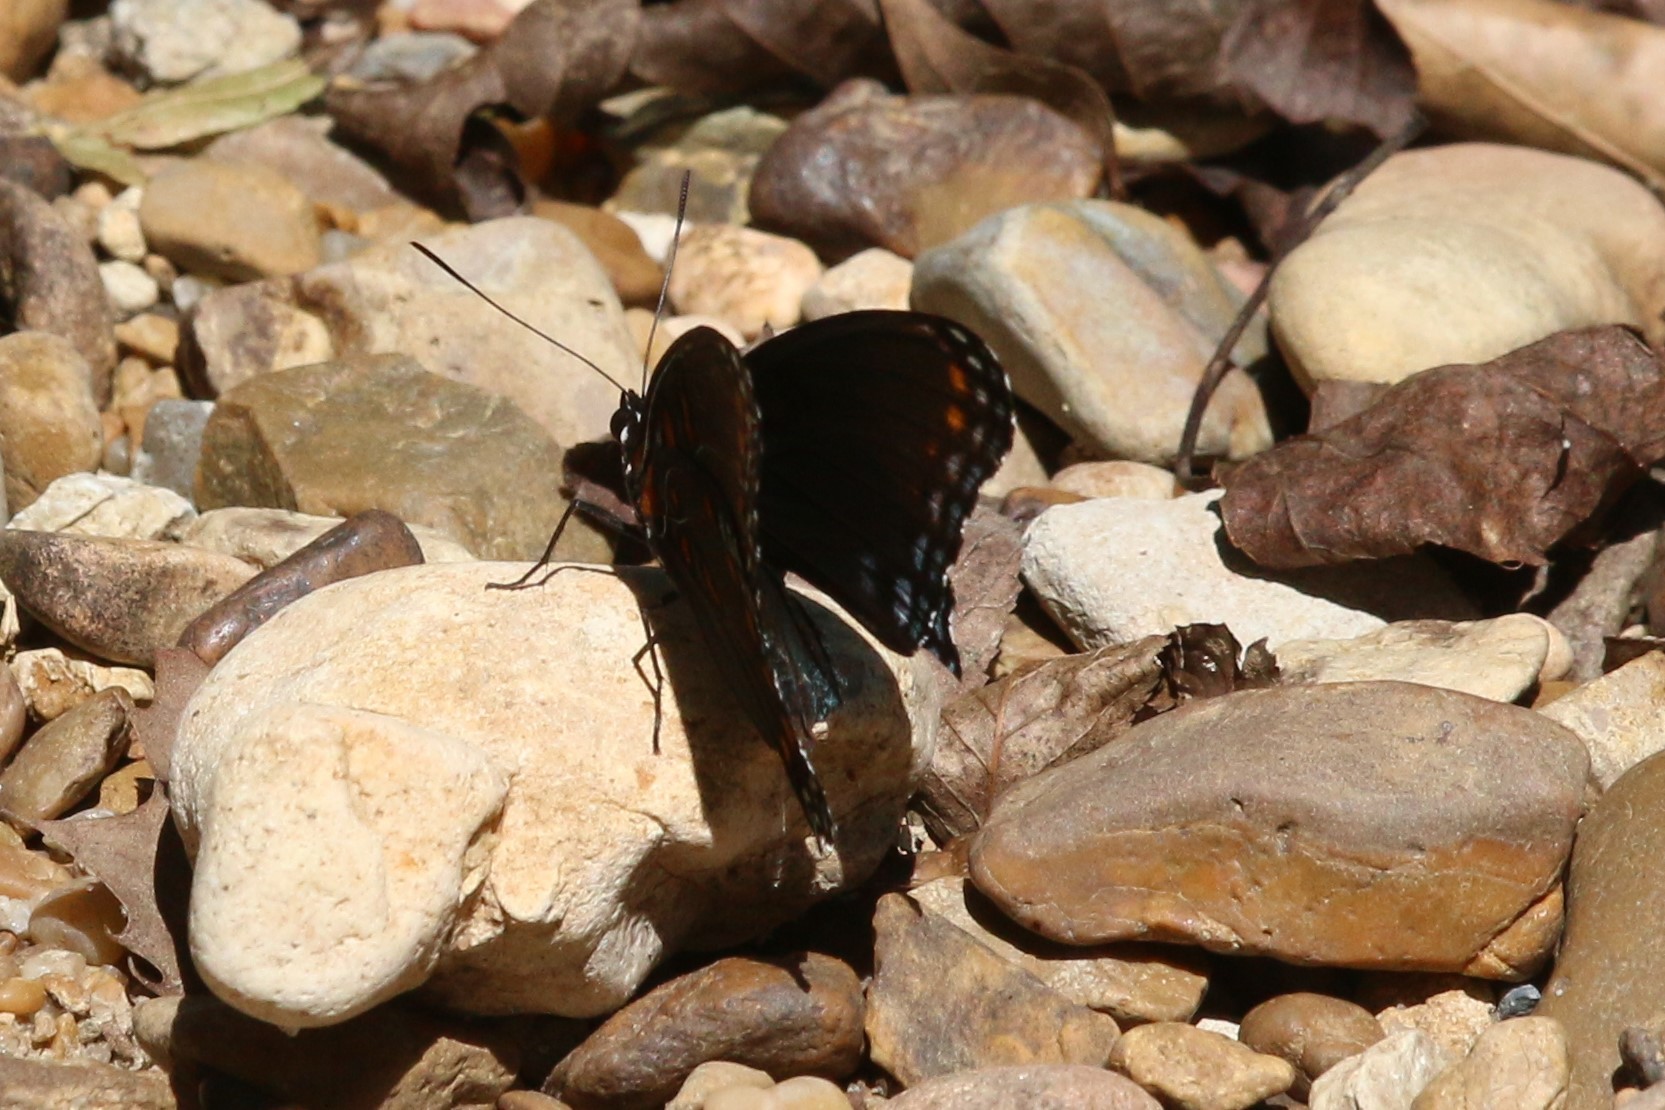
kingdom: Animalia
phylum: Arthropoda
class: Insecta
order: Lepidoptera
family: Nymphalidae
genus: Limenitis
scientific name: Limenitis astyanax
